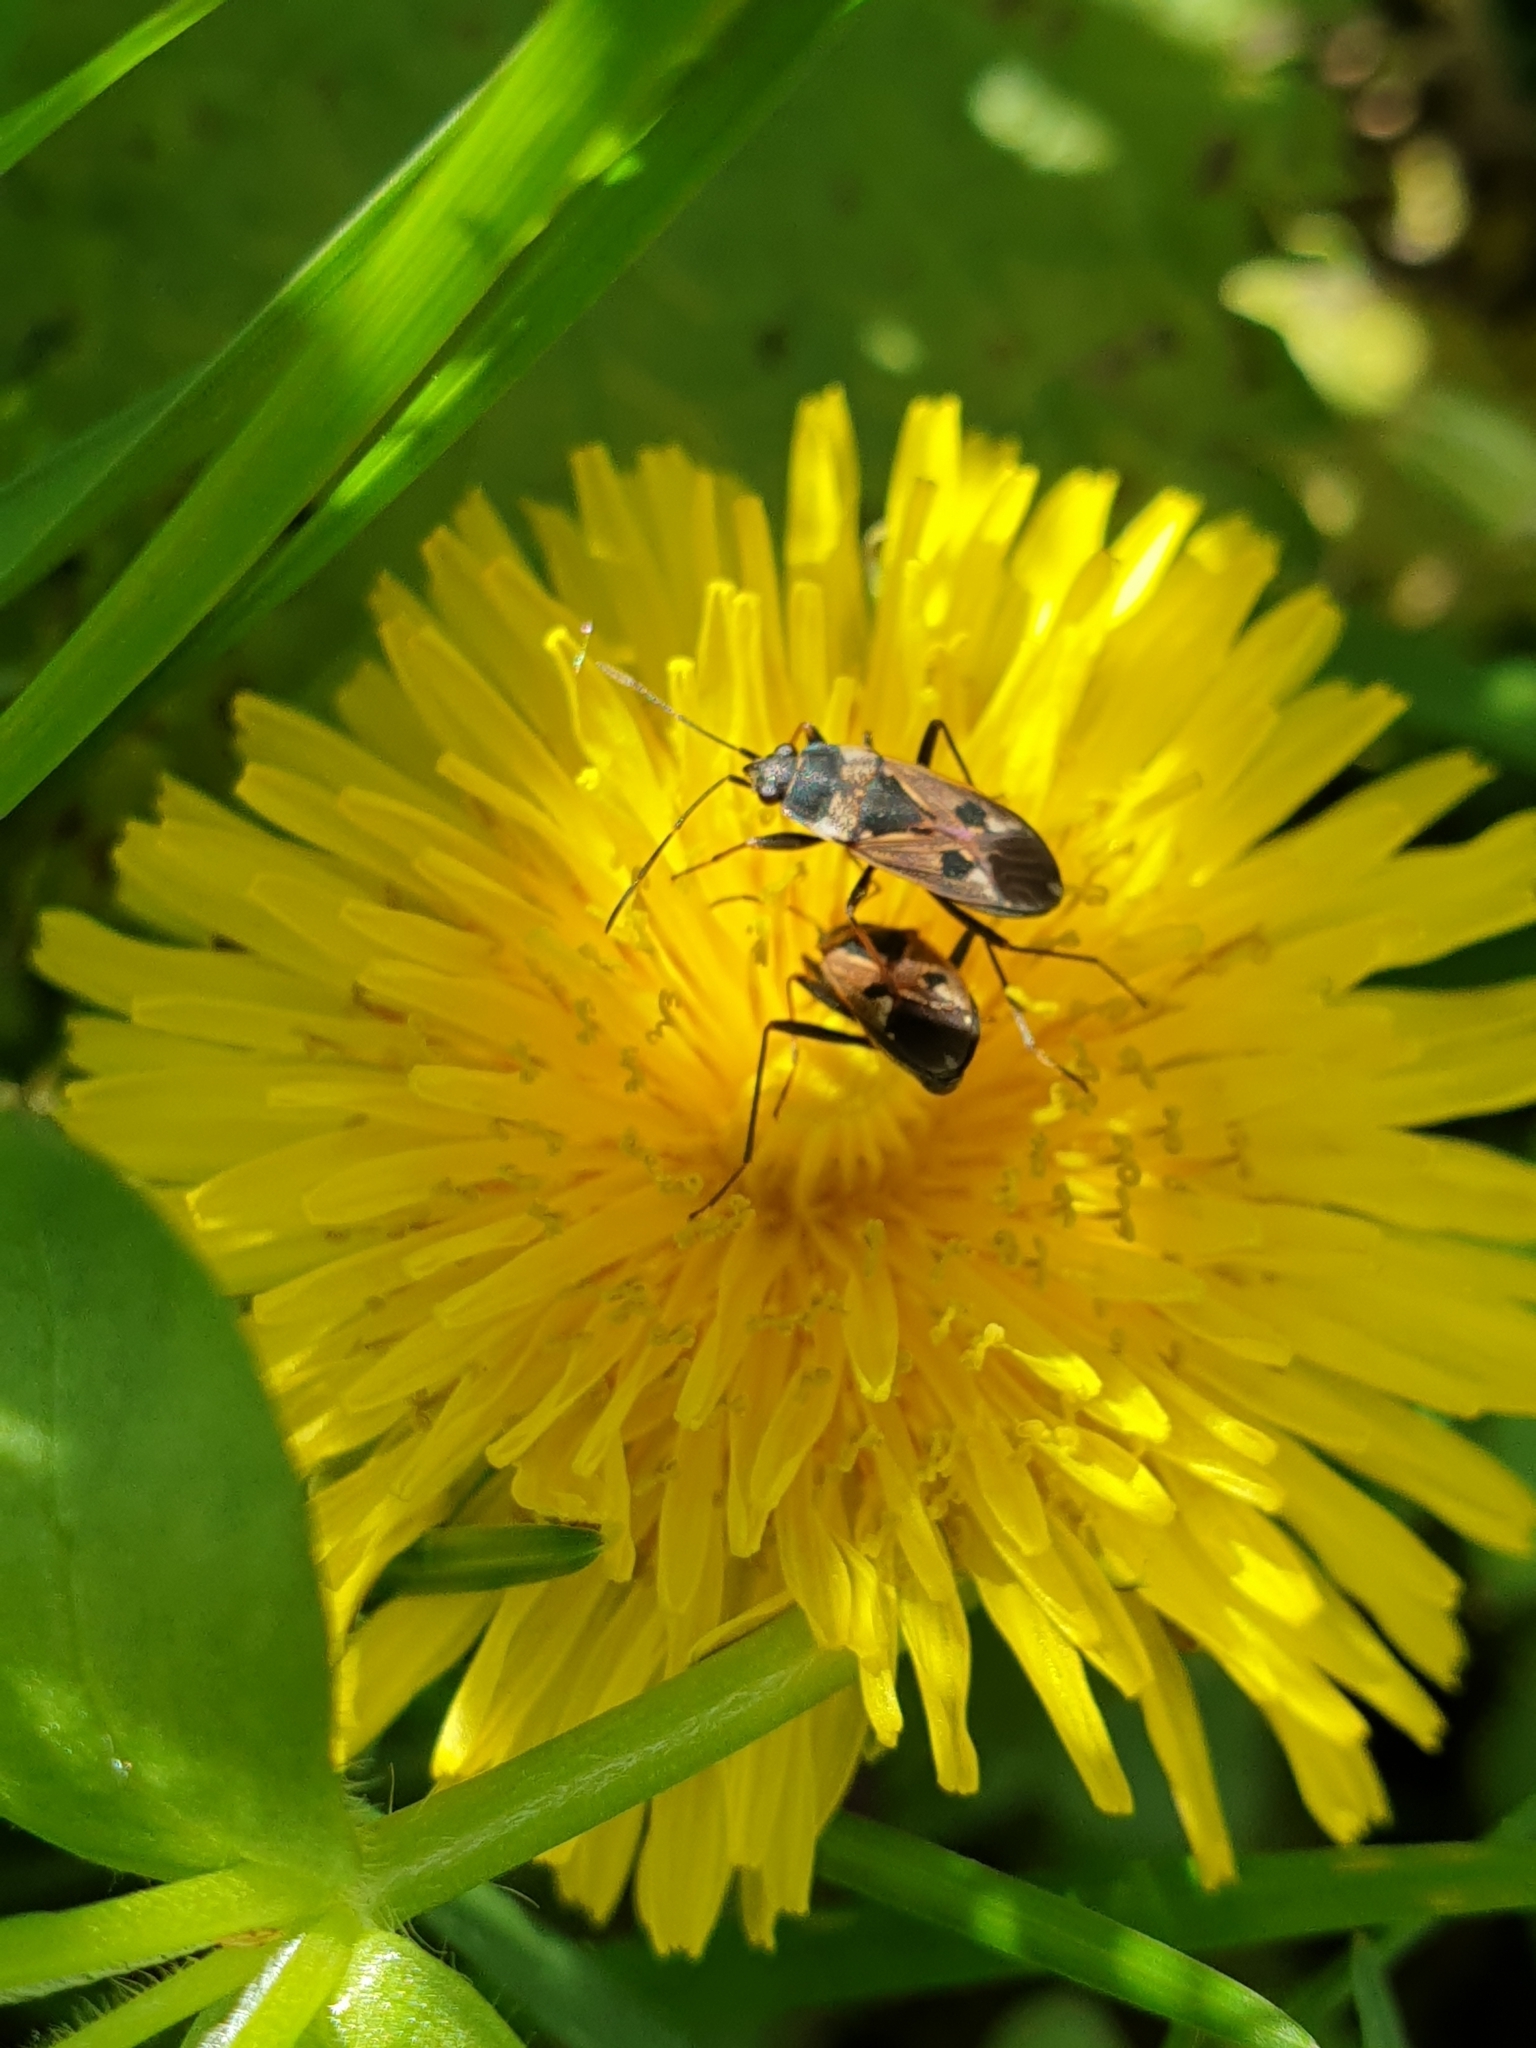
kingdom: Animalia
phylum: Arthropoda
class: Insecta
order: Hemiptera
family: Rhyparochromidae
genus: Rhyparochromus
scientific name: Rhyparochromus vulgaris
